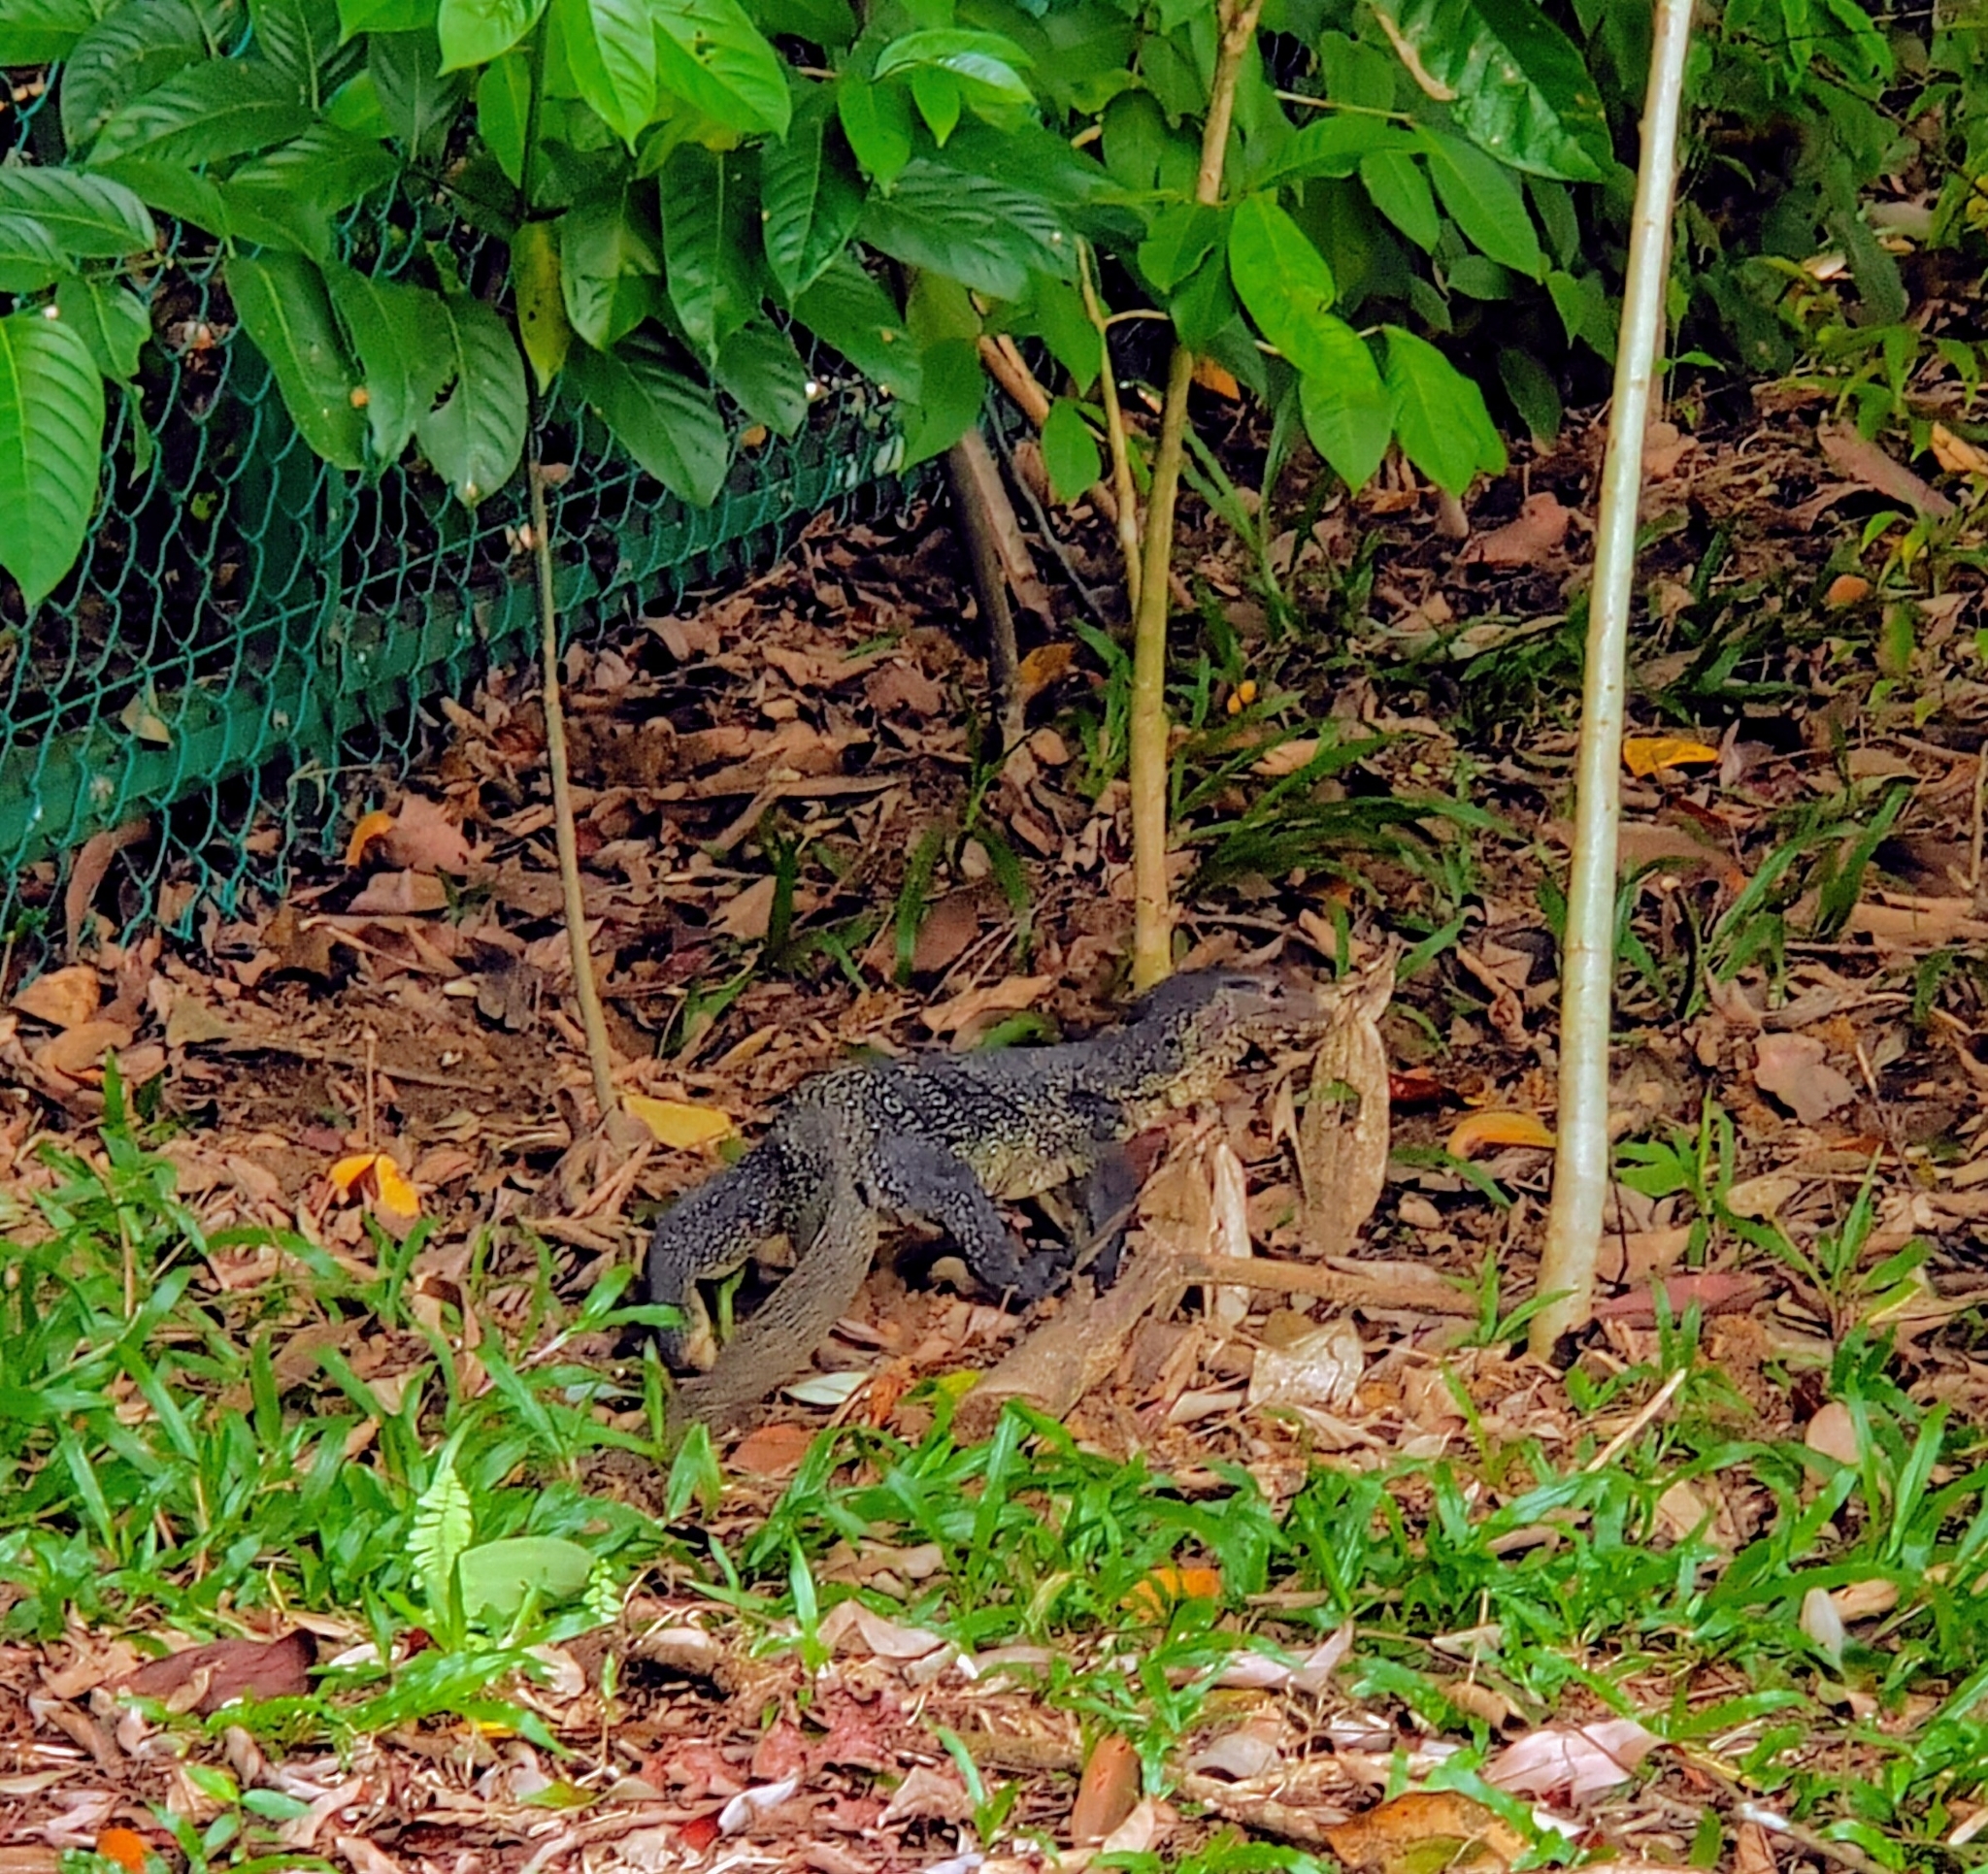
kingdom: Animalia
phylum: Chordata
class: Squamata
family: Varanidae
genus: Varanus
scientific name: Varanus salvator
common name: Common water monitor
